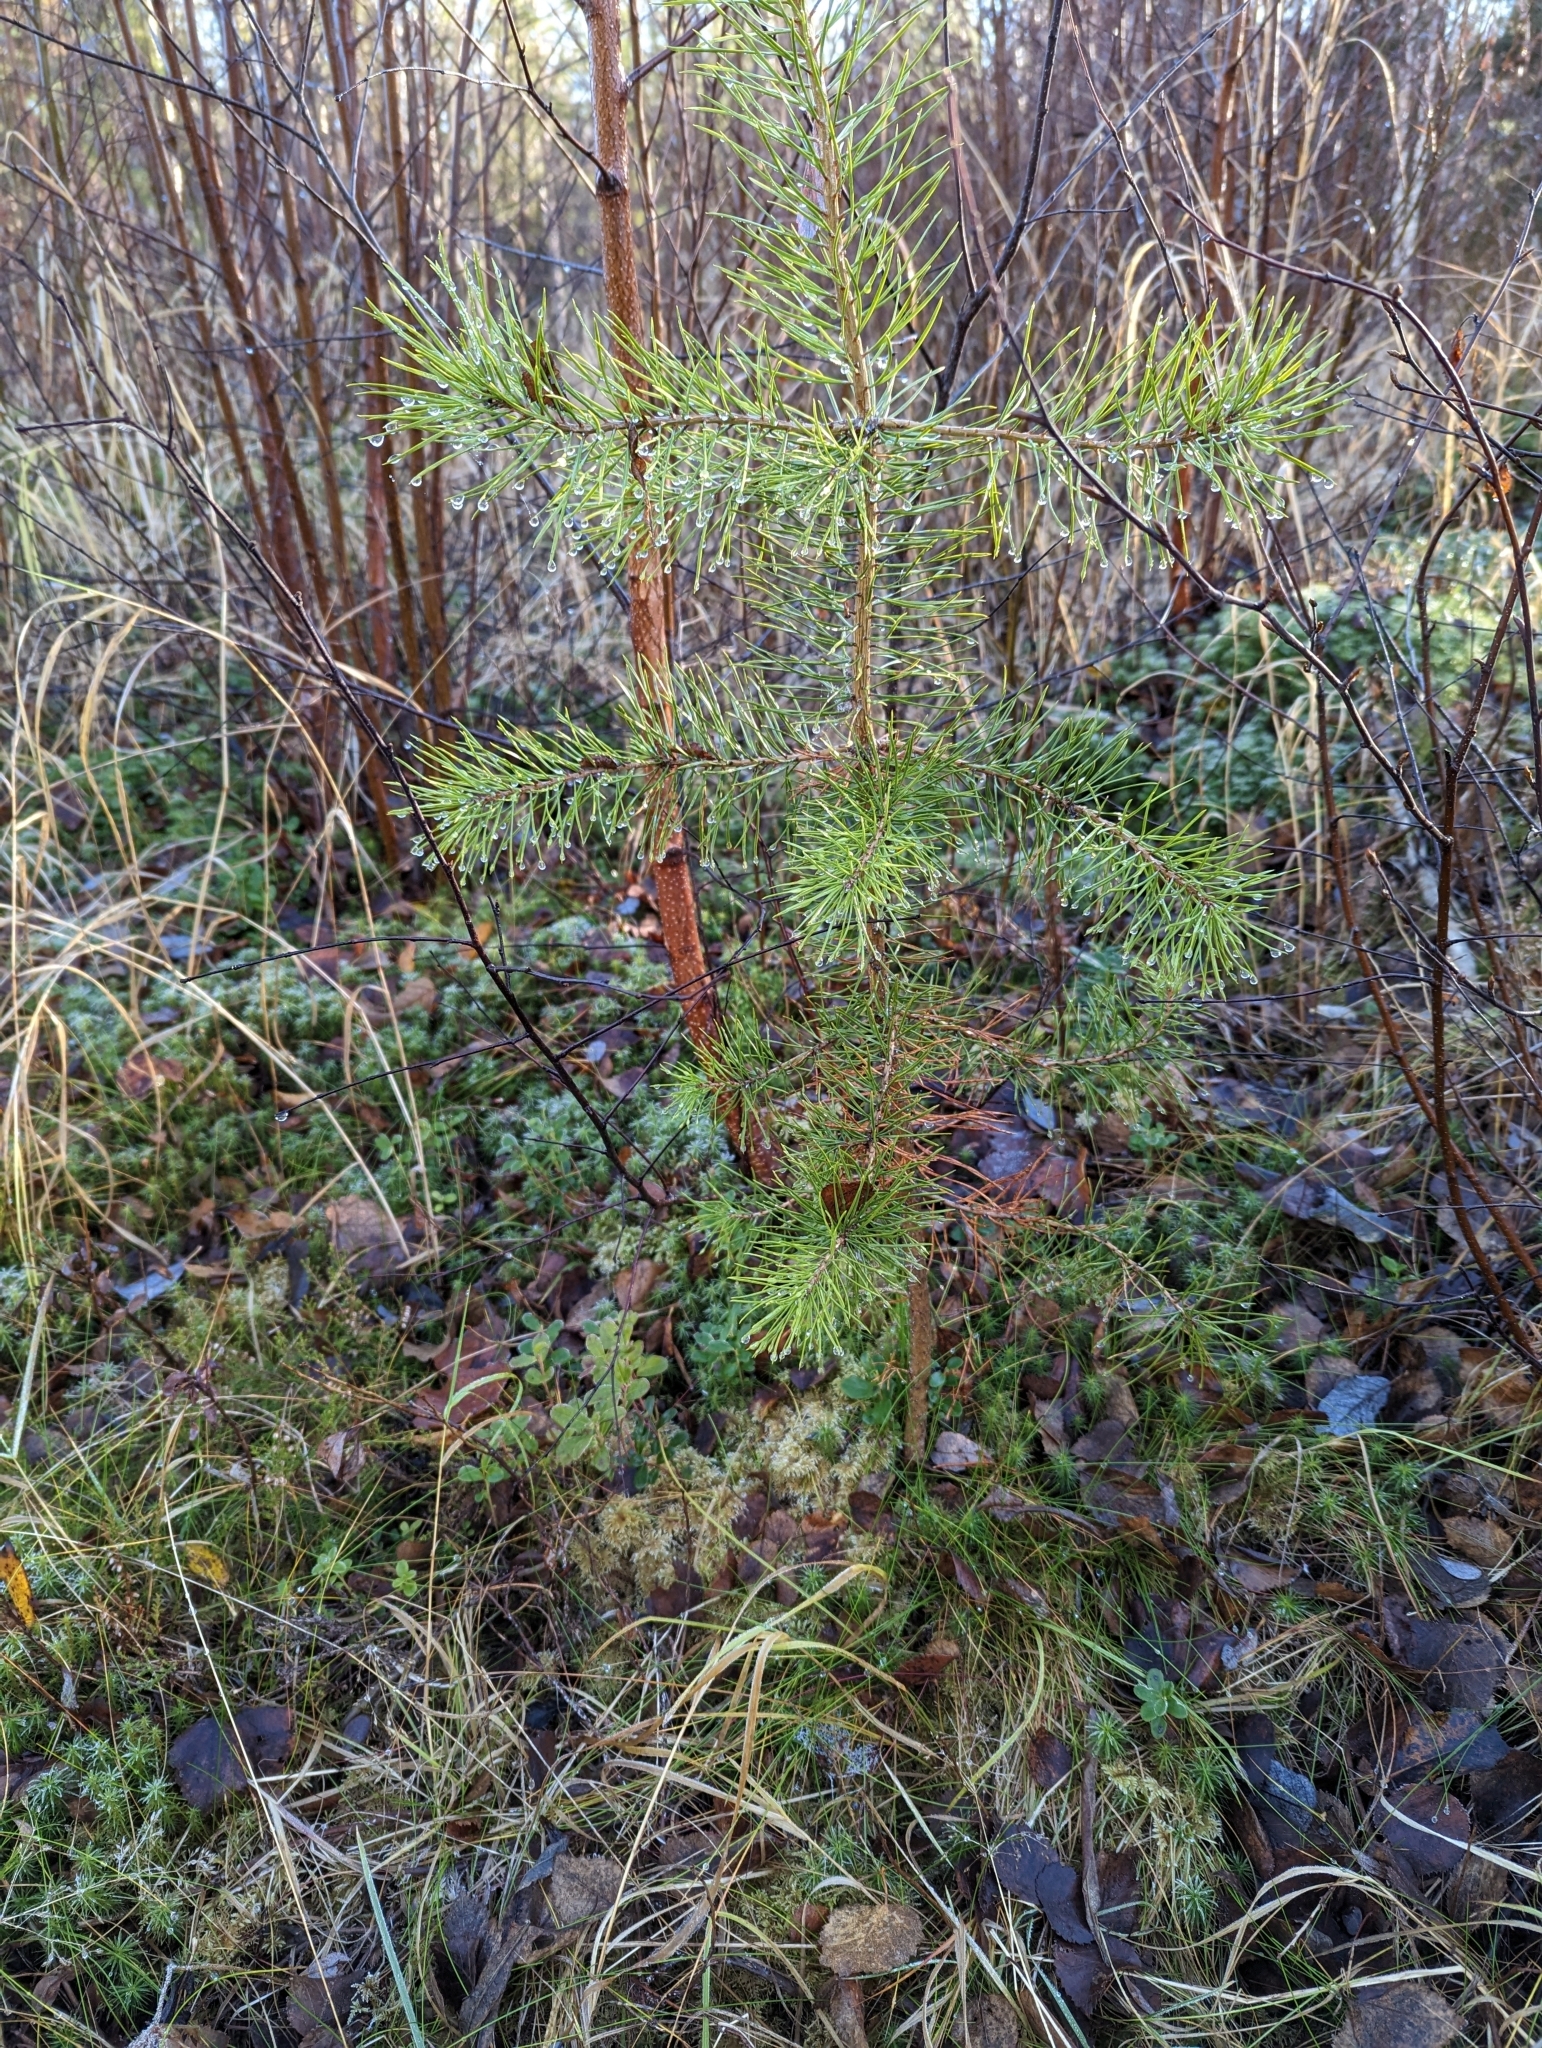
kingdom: Plantae
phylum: Tracheophyta
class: Pinopsida
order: Pinales
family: Pinaceae
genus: Pinus
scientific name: Pinus sylvestris
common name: Scots pine
